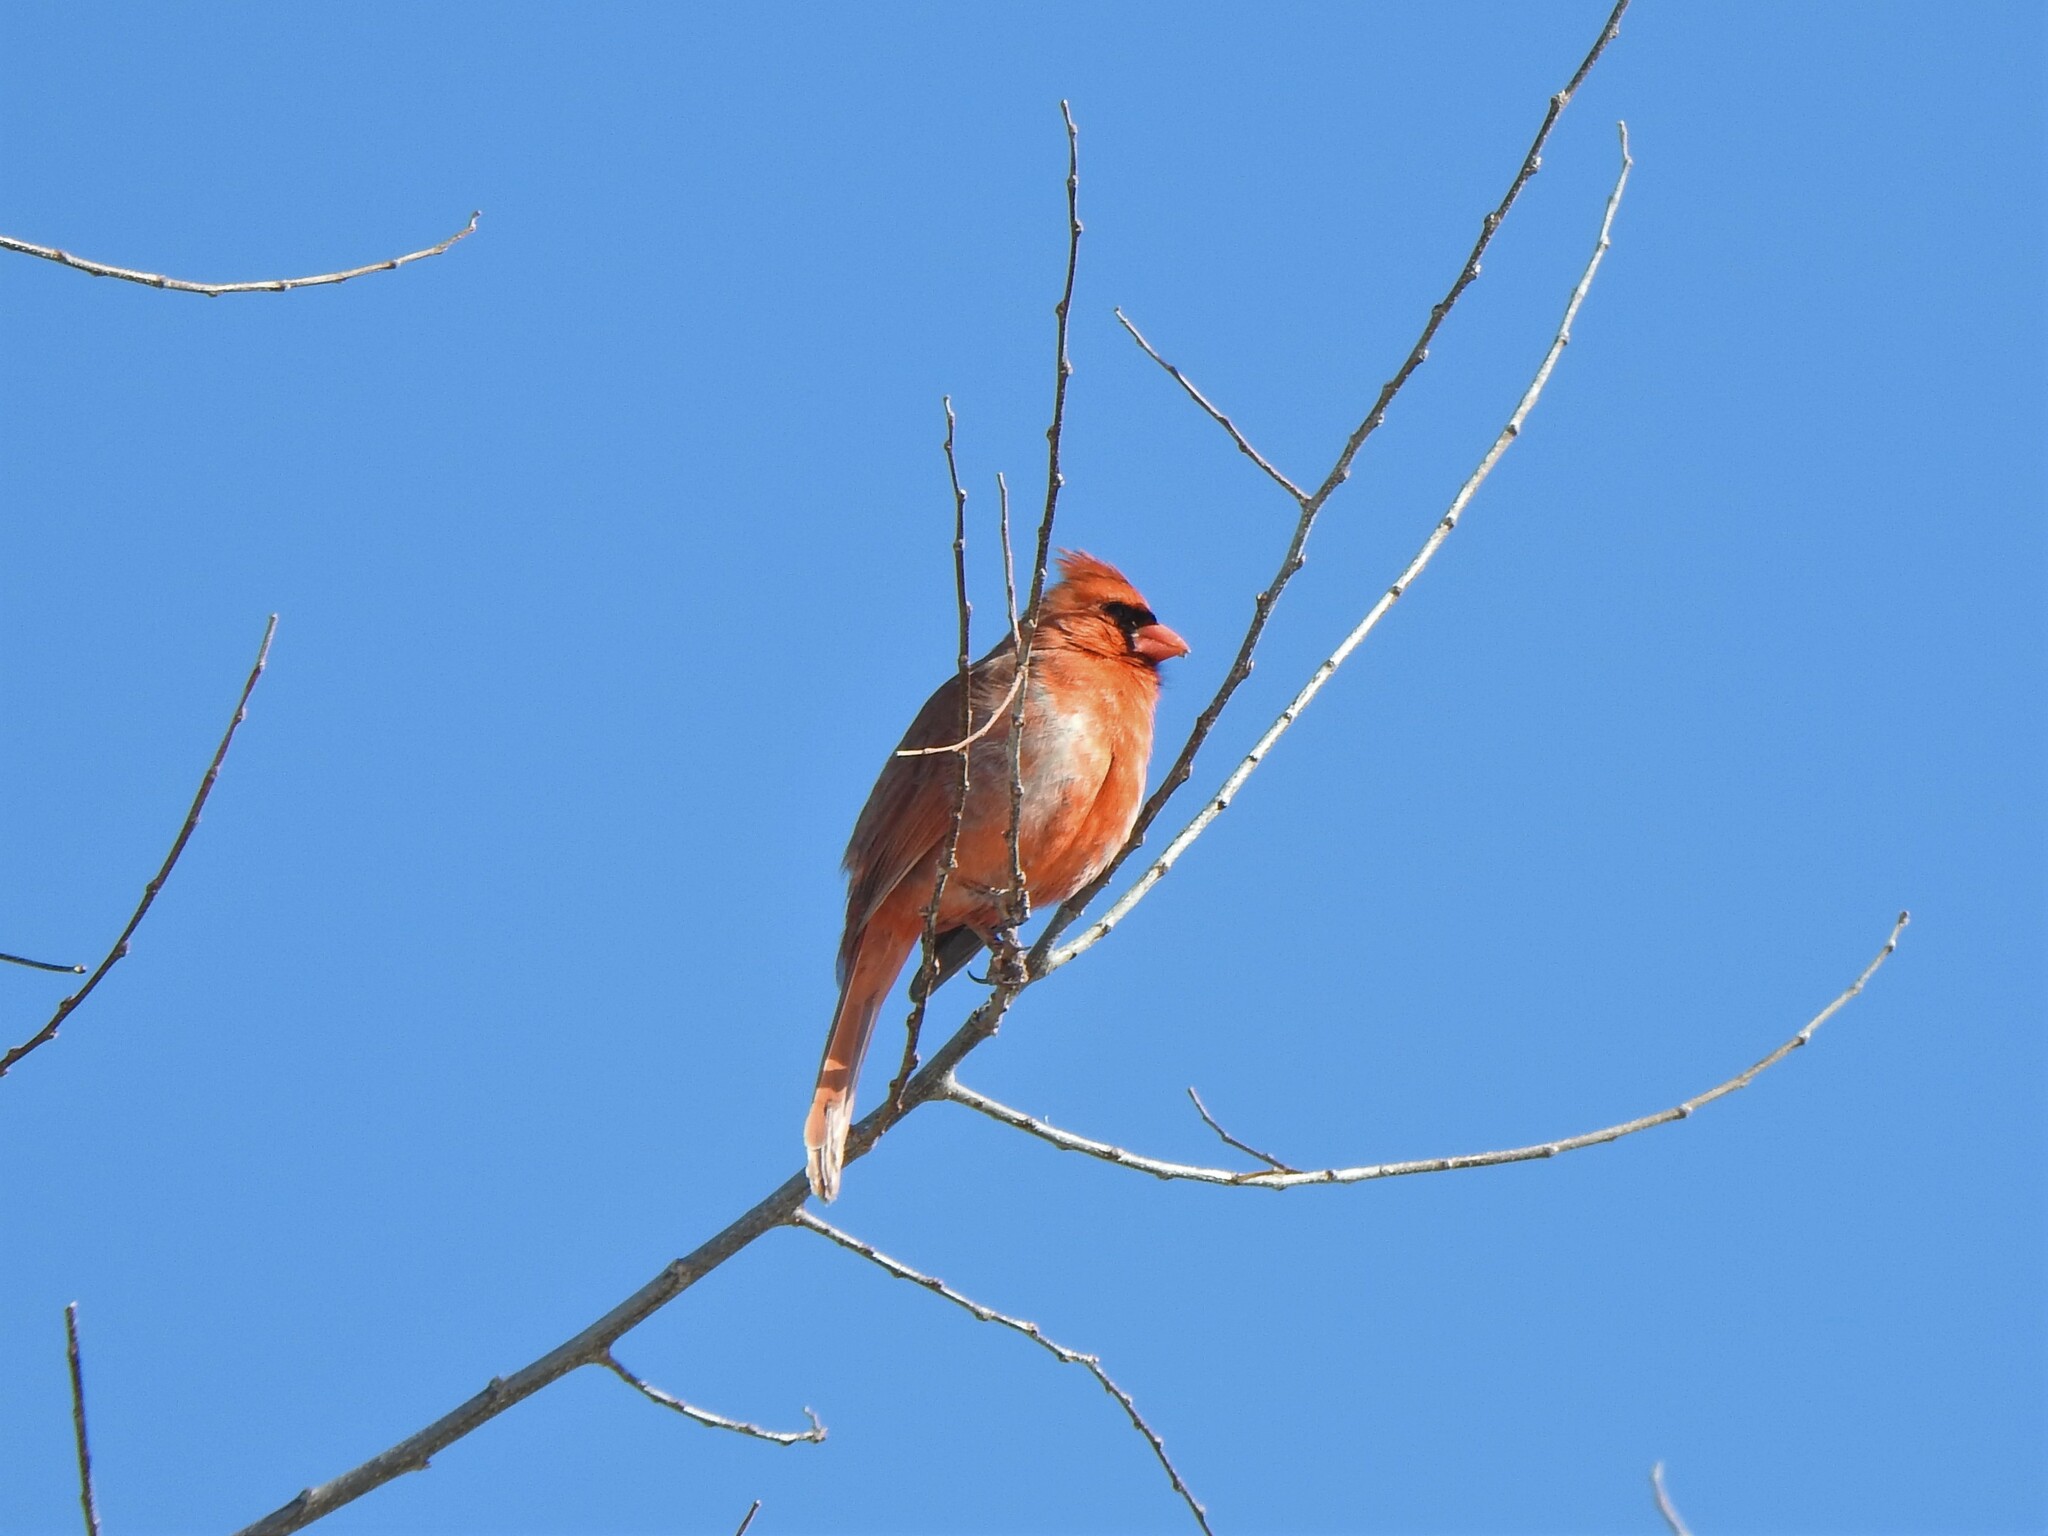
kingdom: Animalia
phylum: Chordata
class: Aves
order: Passeriformes
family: Cardinalidae
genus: Cardinalis
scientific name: Cardinalis cardinalis
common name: Northern cardinal
